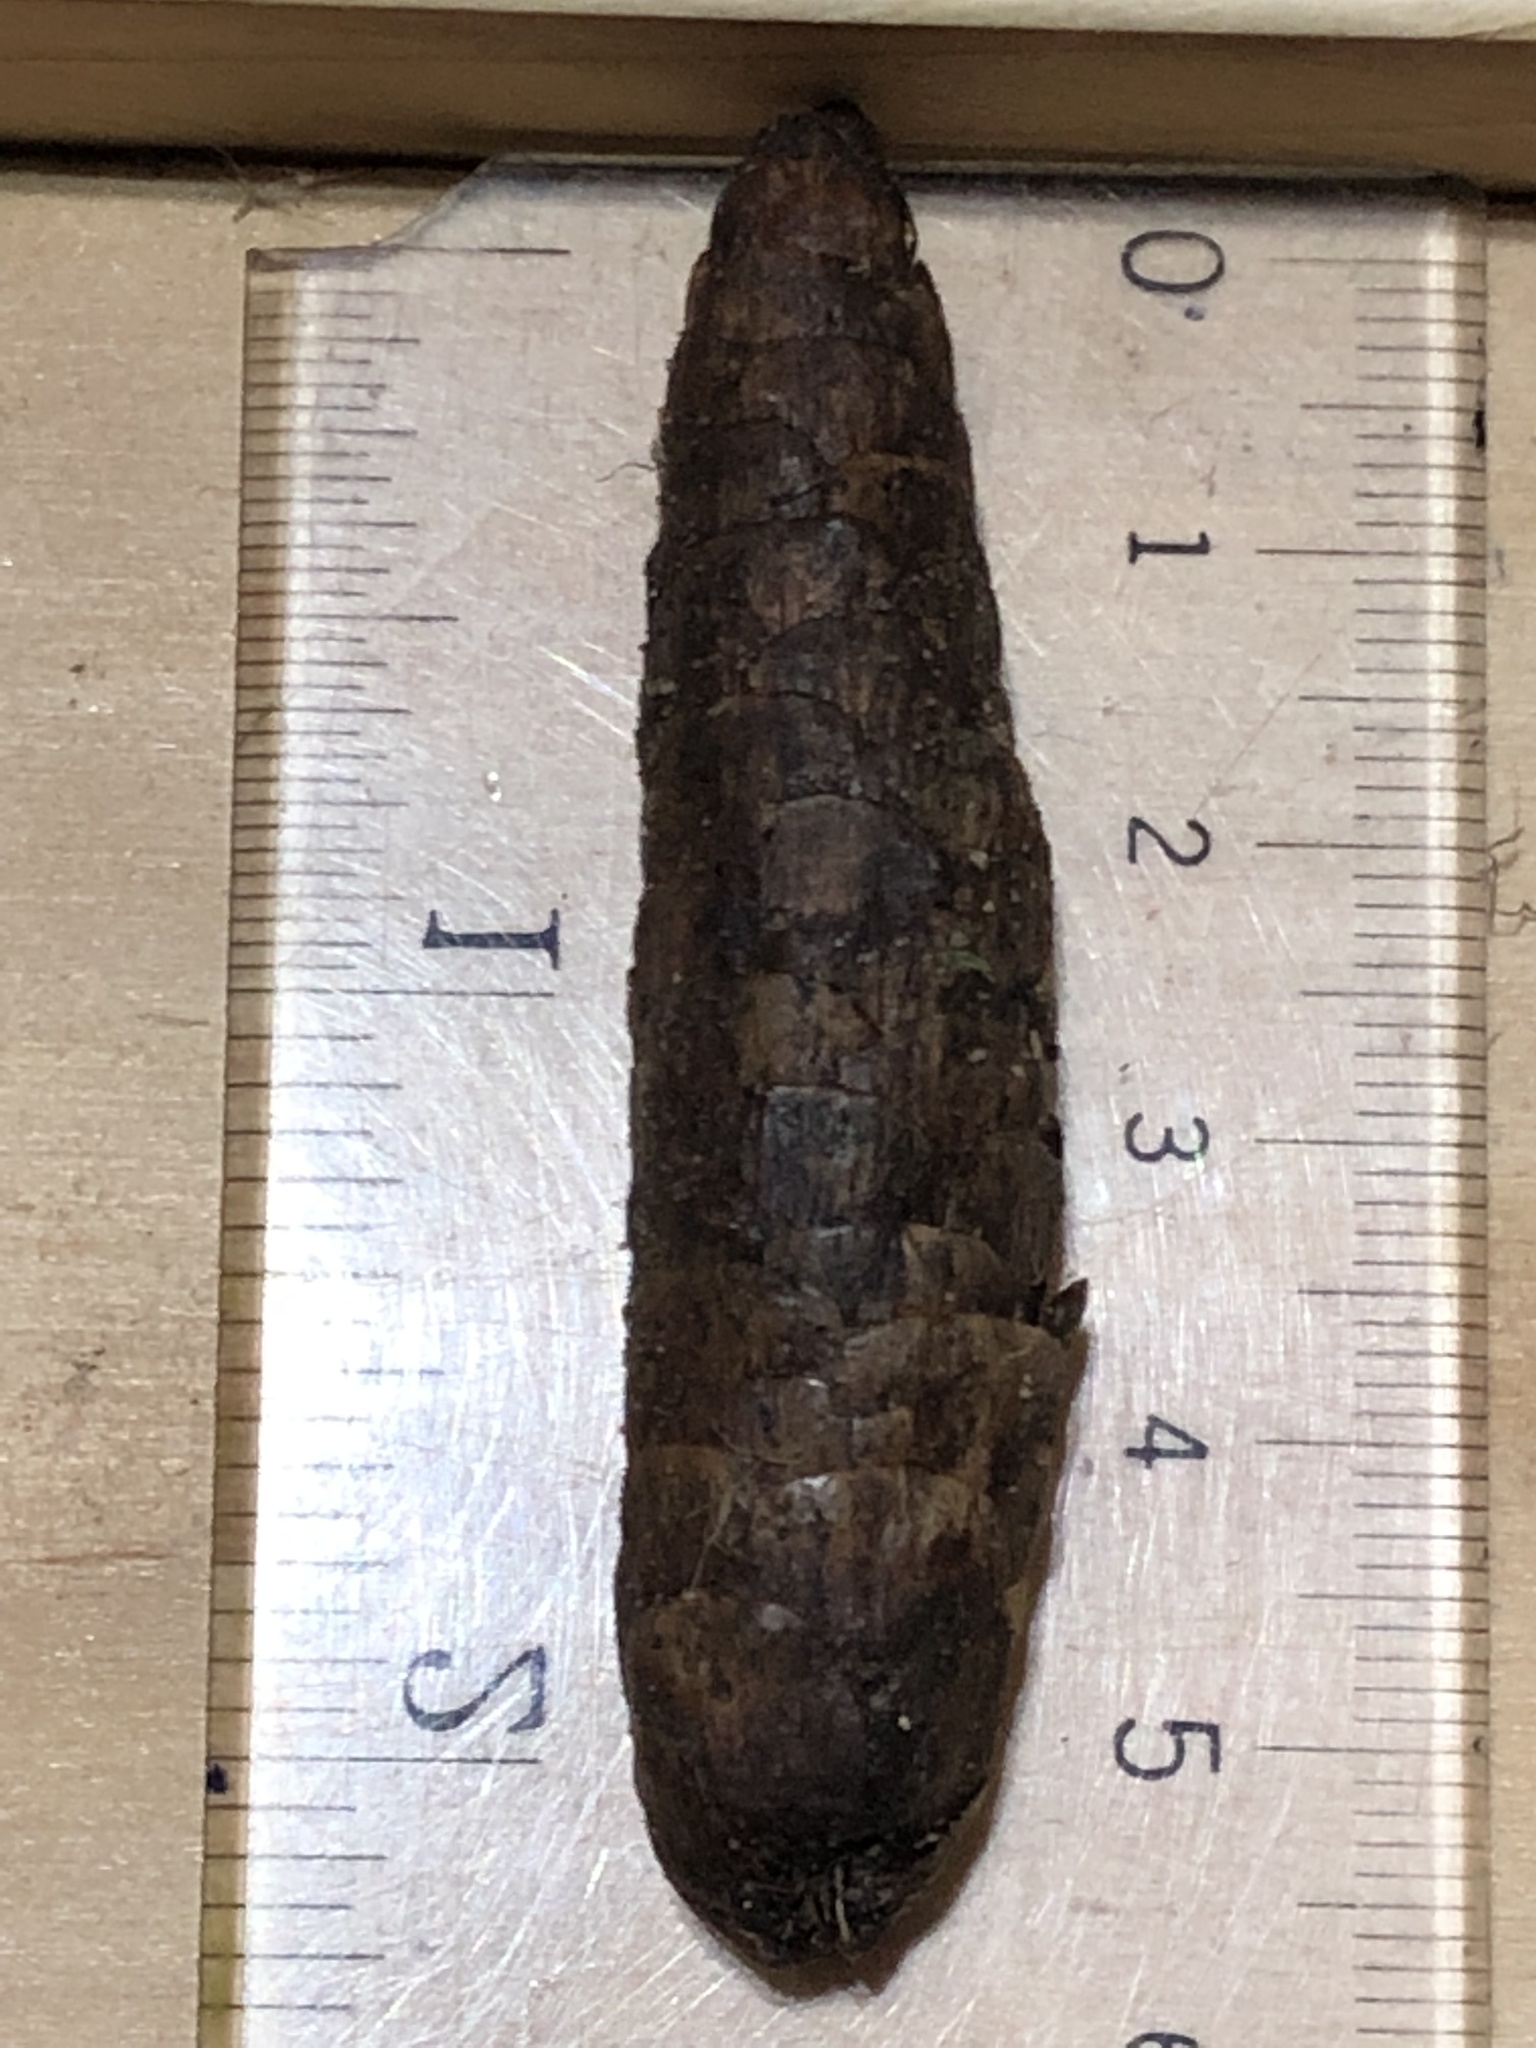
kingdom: Plantae
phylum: Tracheophyta
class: Pinopsida
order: Pinales
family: Pinaceae
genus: Picea
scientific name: Picea glauca
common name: White spruce
